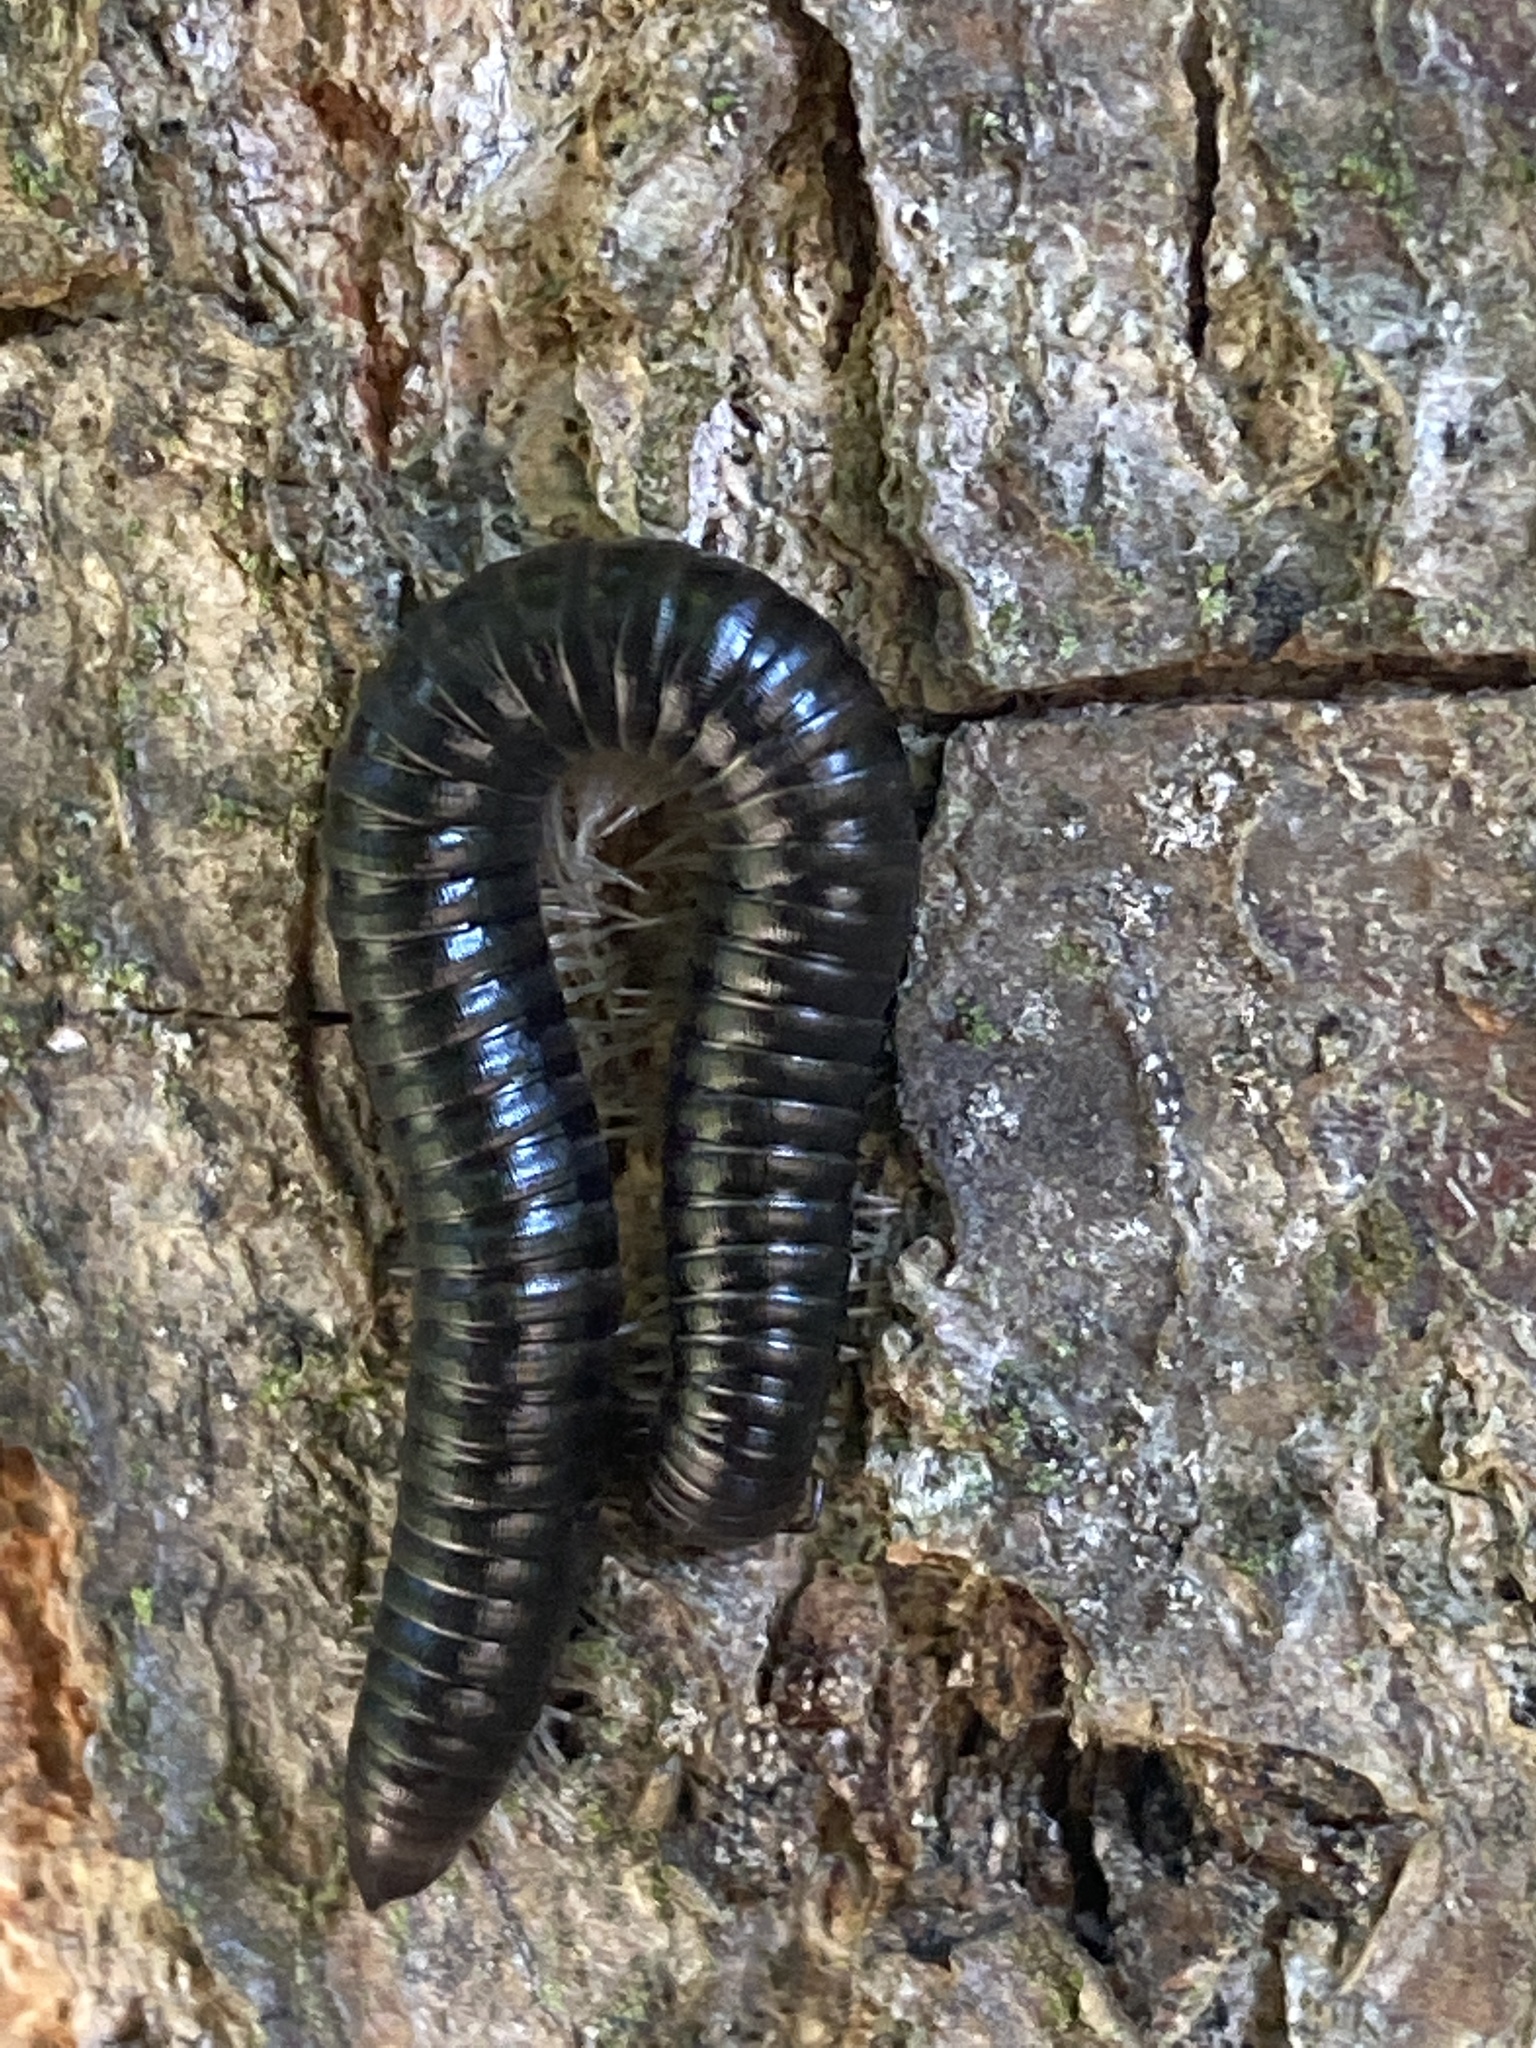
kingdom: Animalia
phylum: Arthropoda
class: Diplopoda
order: Julida
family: Julidae
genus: Tachypodoiulus
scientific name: Tachypodoiulus niger
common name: White-legged snake millipede
